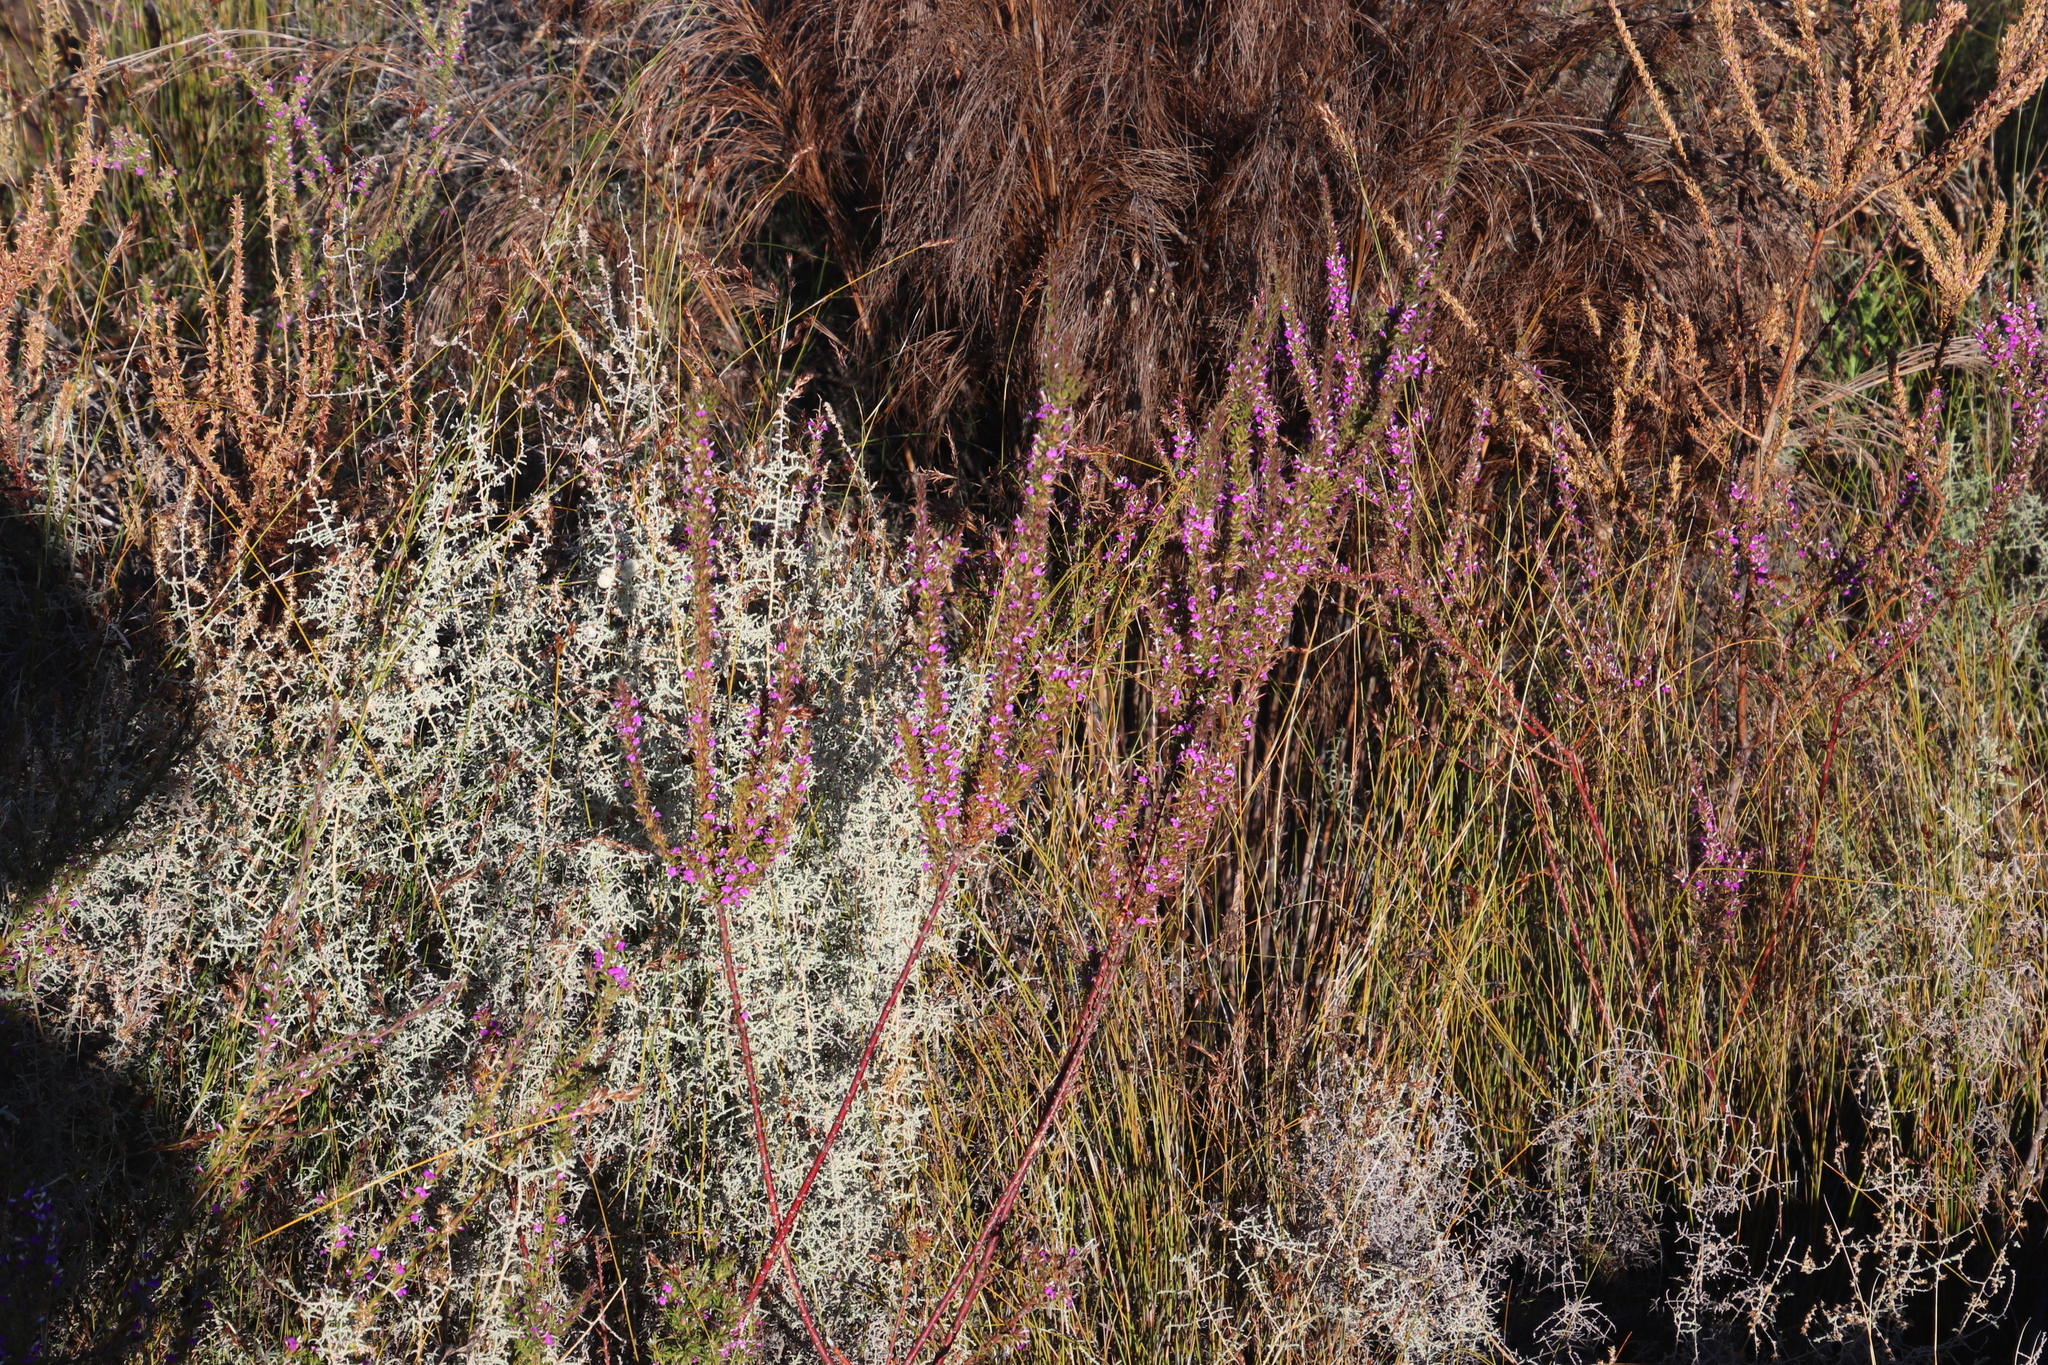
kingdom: Plantae
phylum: Tracheophyta
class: Magnoliopsida
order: Fabales
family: Polygalaceae
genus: Muraltia
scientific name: Muraltia heisteria
